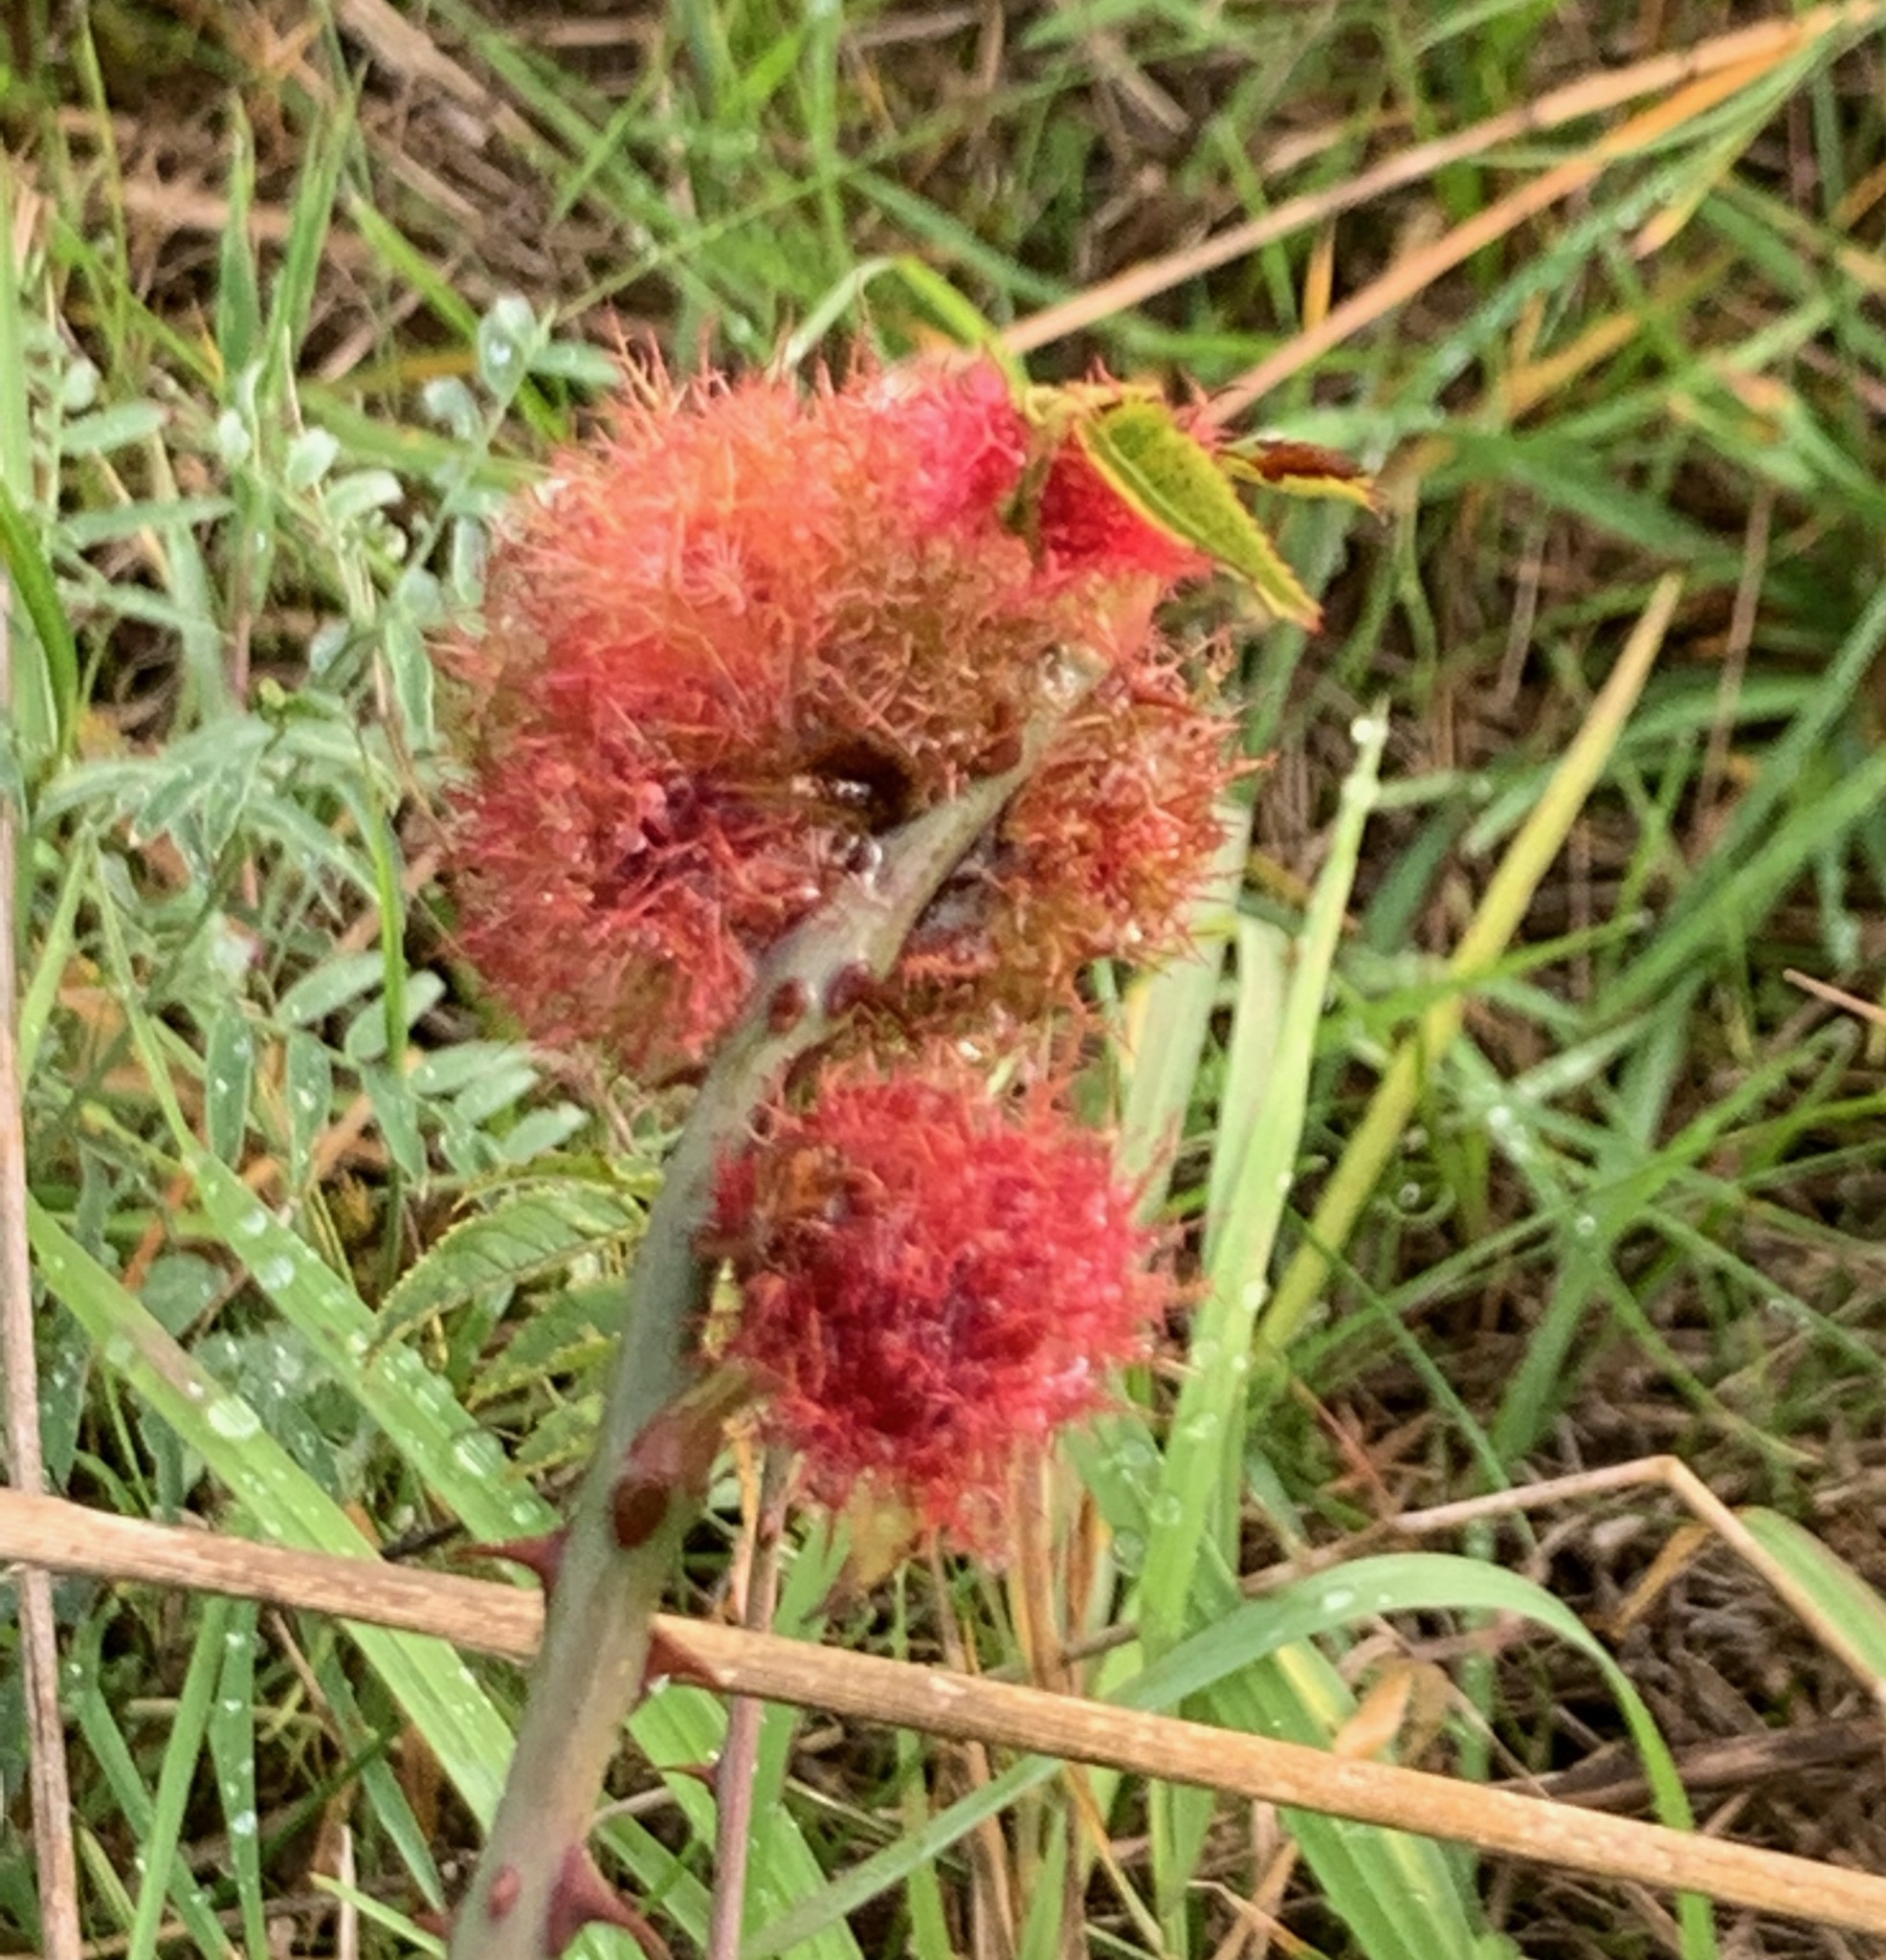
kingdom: Animalia
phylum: Arthropoda
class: Insecta
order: Hymenoptera
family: Cynipidae
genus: Diplolepis
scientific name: Diplolepis rosae
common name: Bedeguar gall
